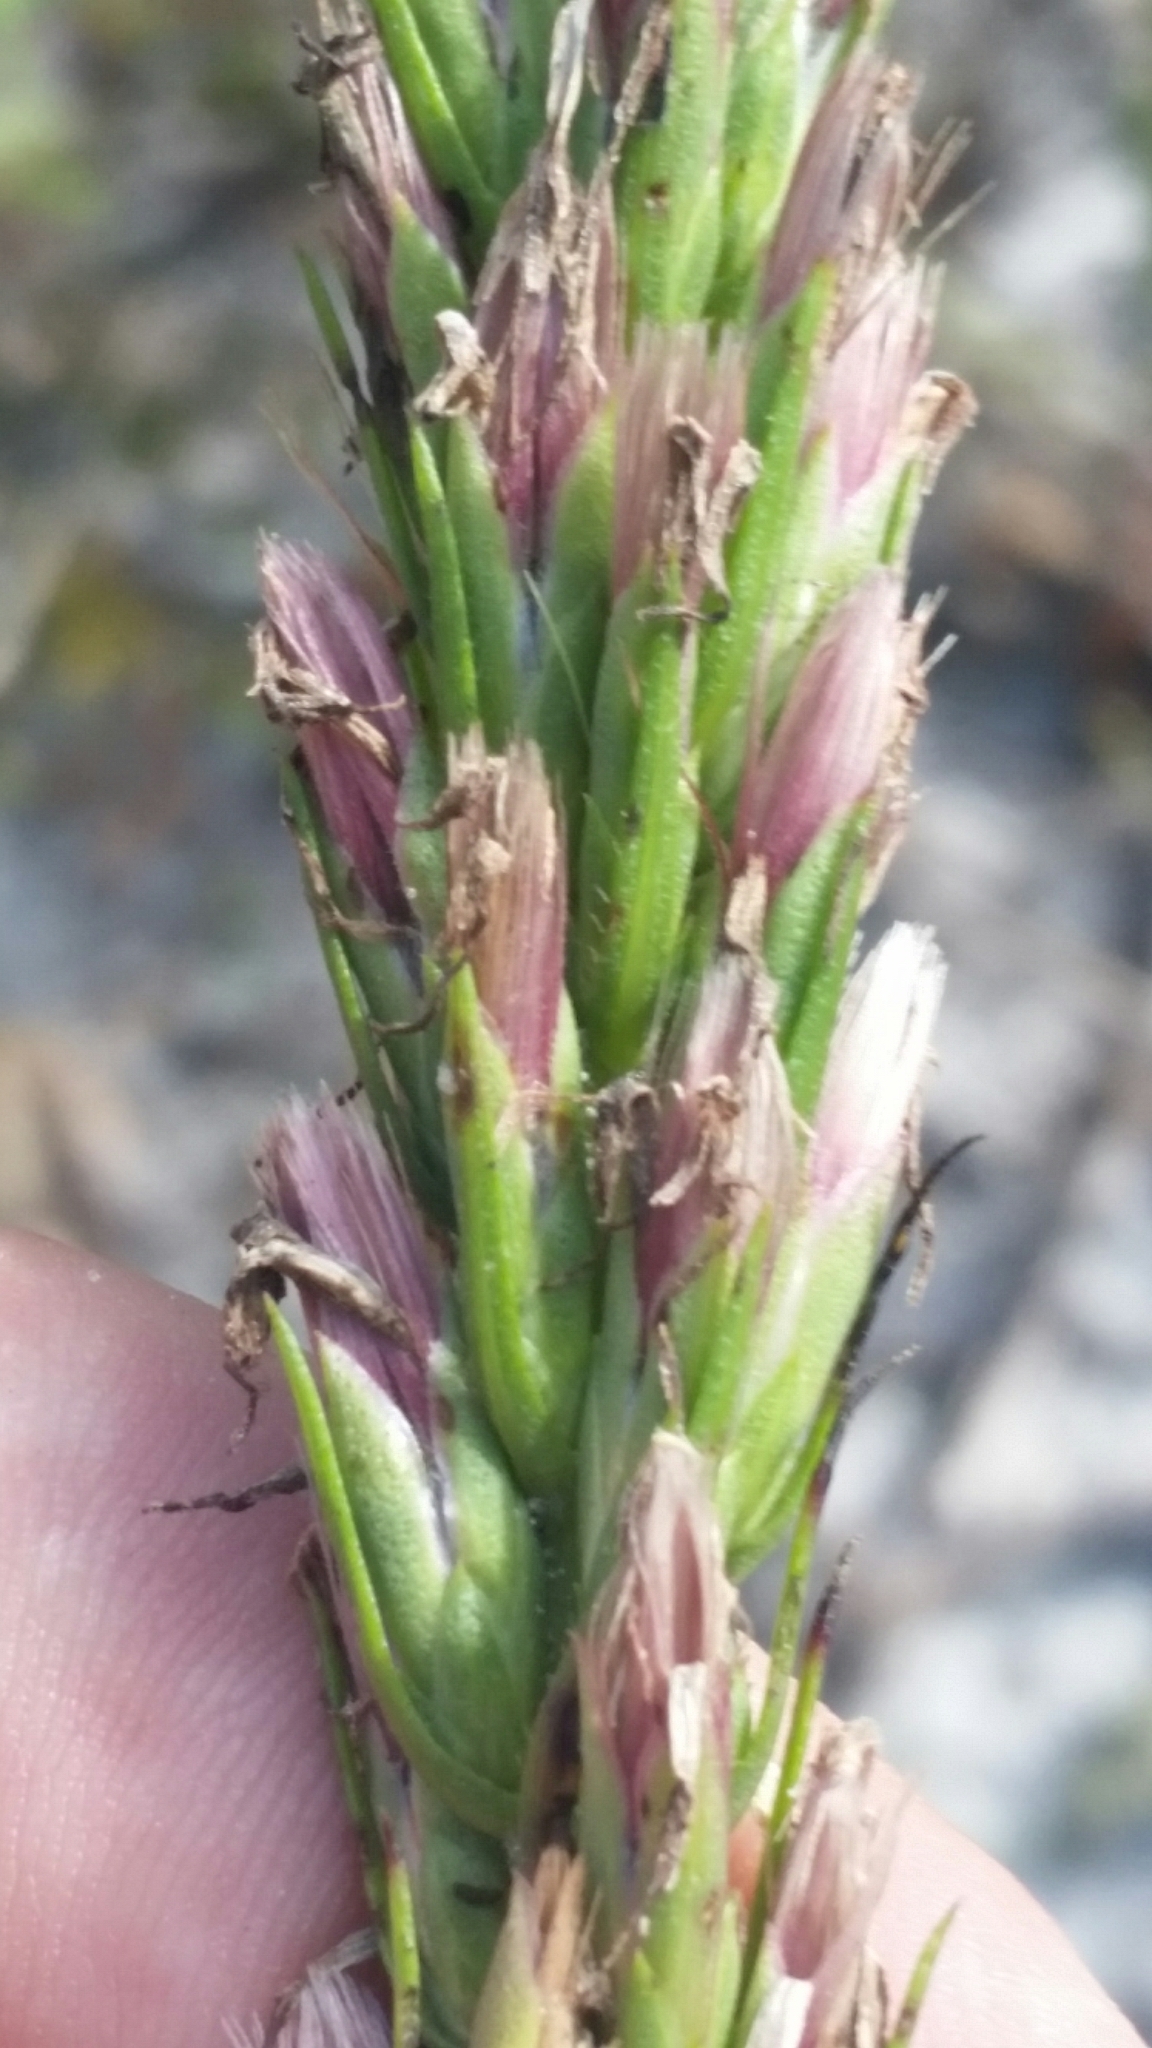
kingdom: Plantae
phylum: Tracheophyta
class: Magnoliopsida
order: Asterales
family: Asteraceae
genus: Liatris
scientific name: Liatris chapmanii
